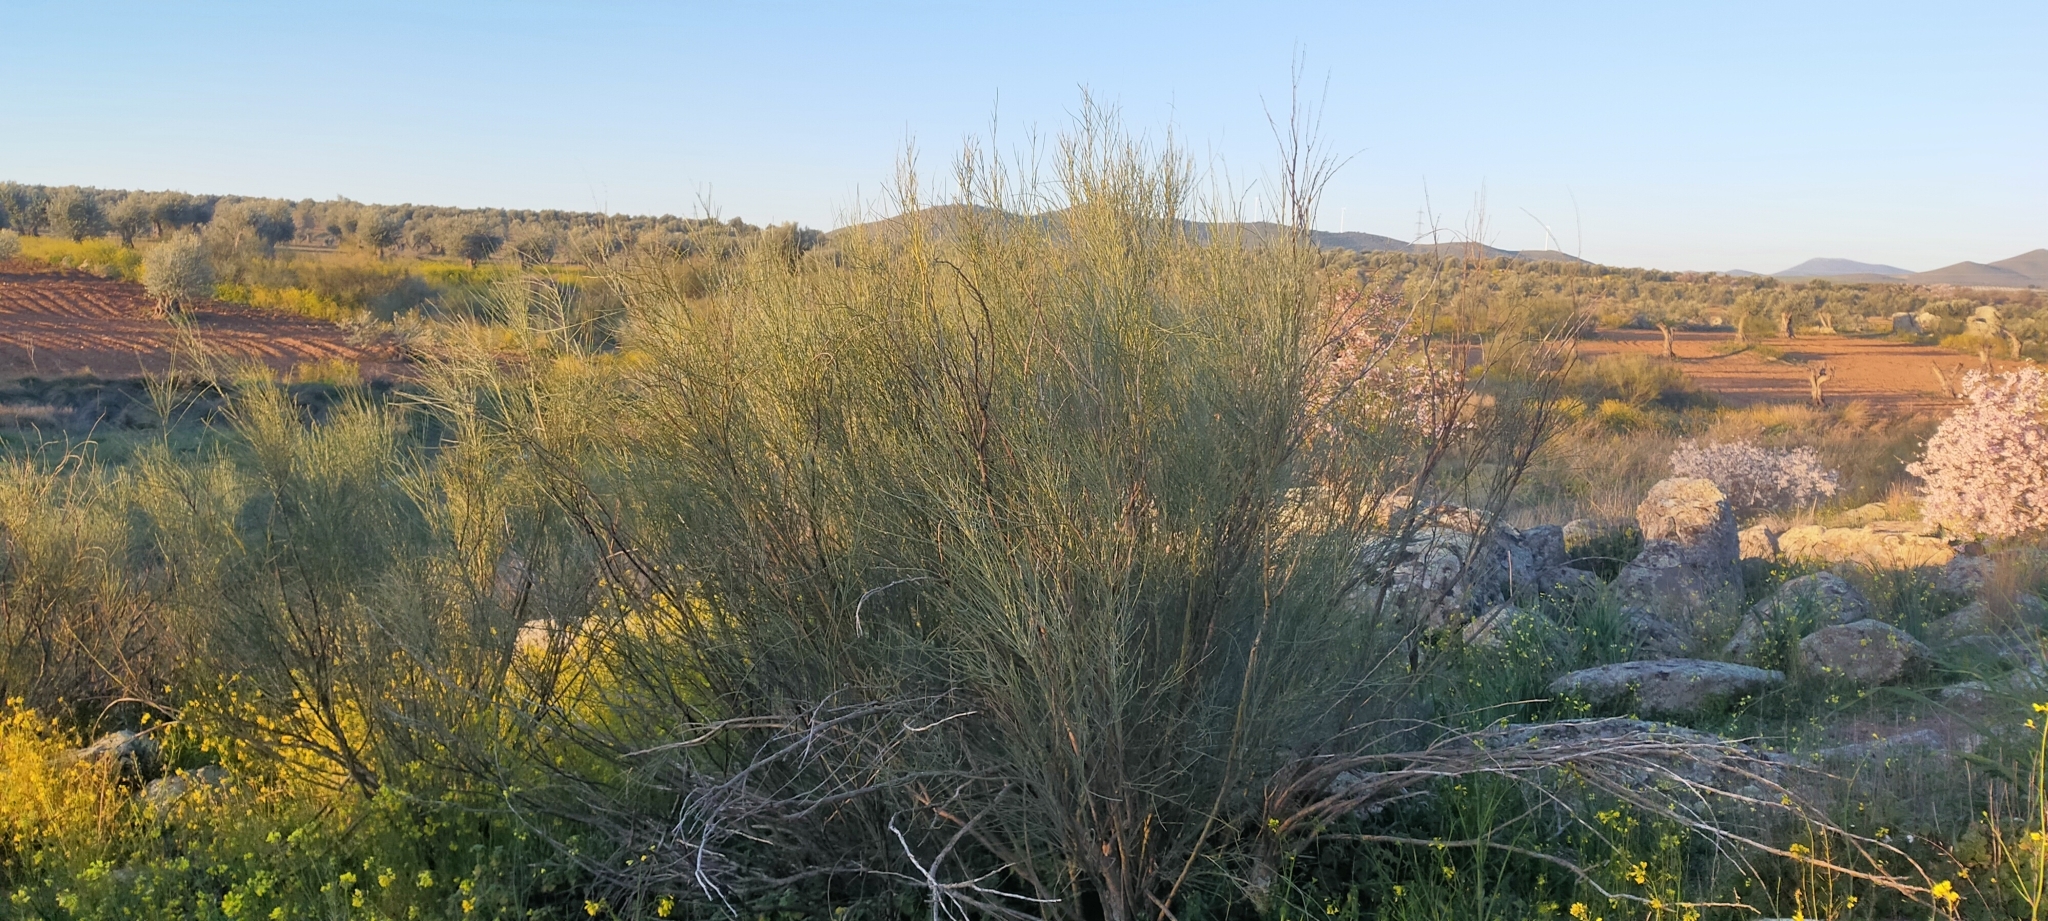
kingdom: Plantae
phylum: Tracheophyta
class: Magnoliopsida
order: Fabales
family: Fabaceae
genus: Retama
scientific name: Retama sphaerocarpa
